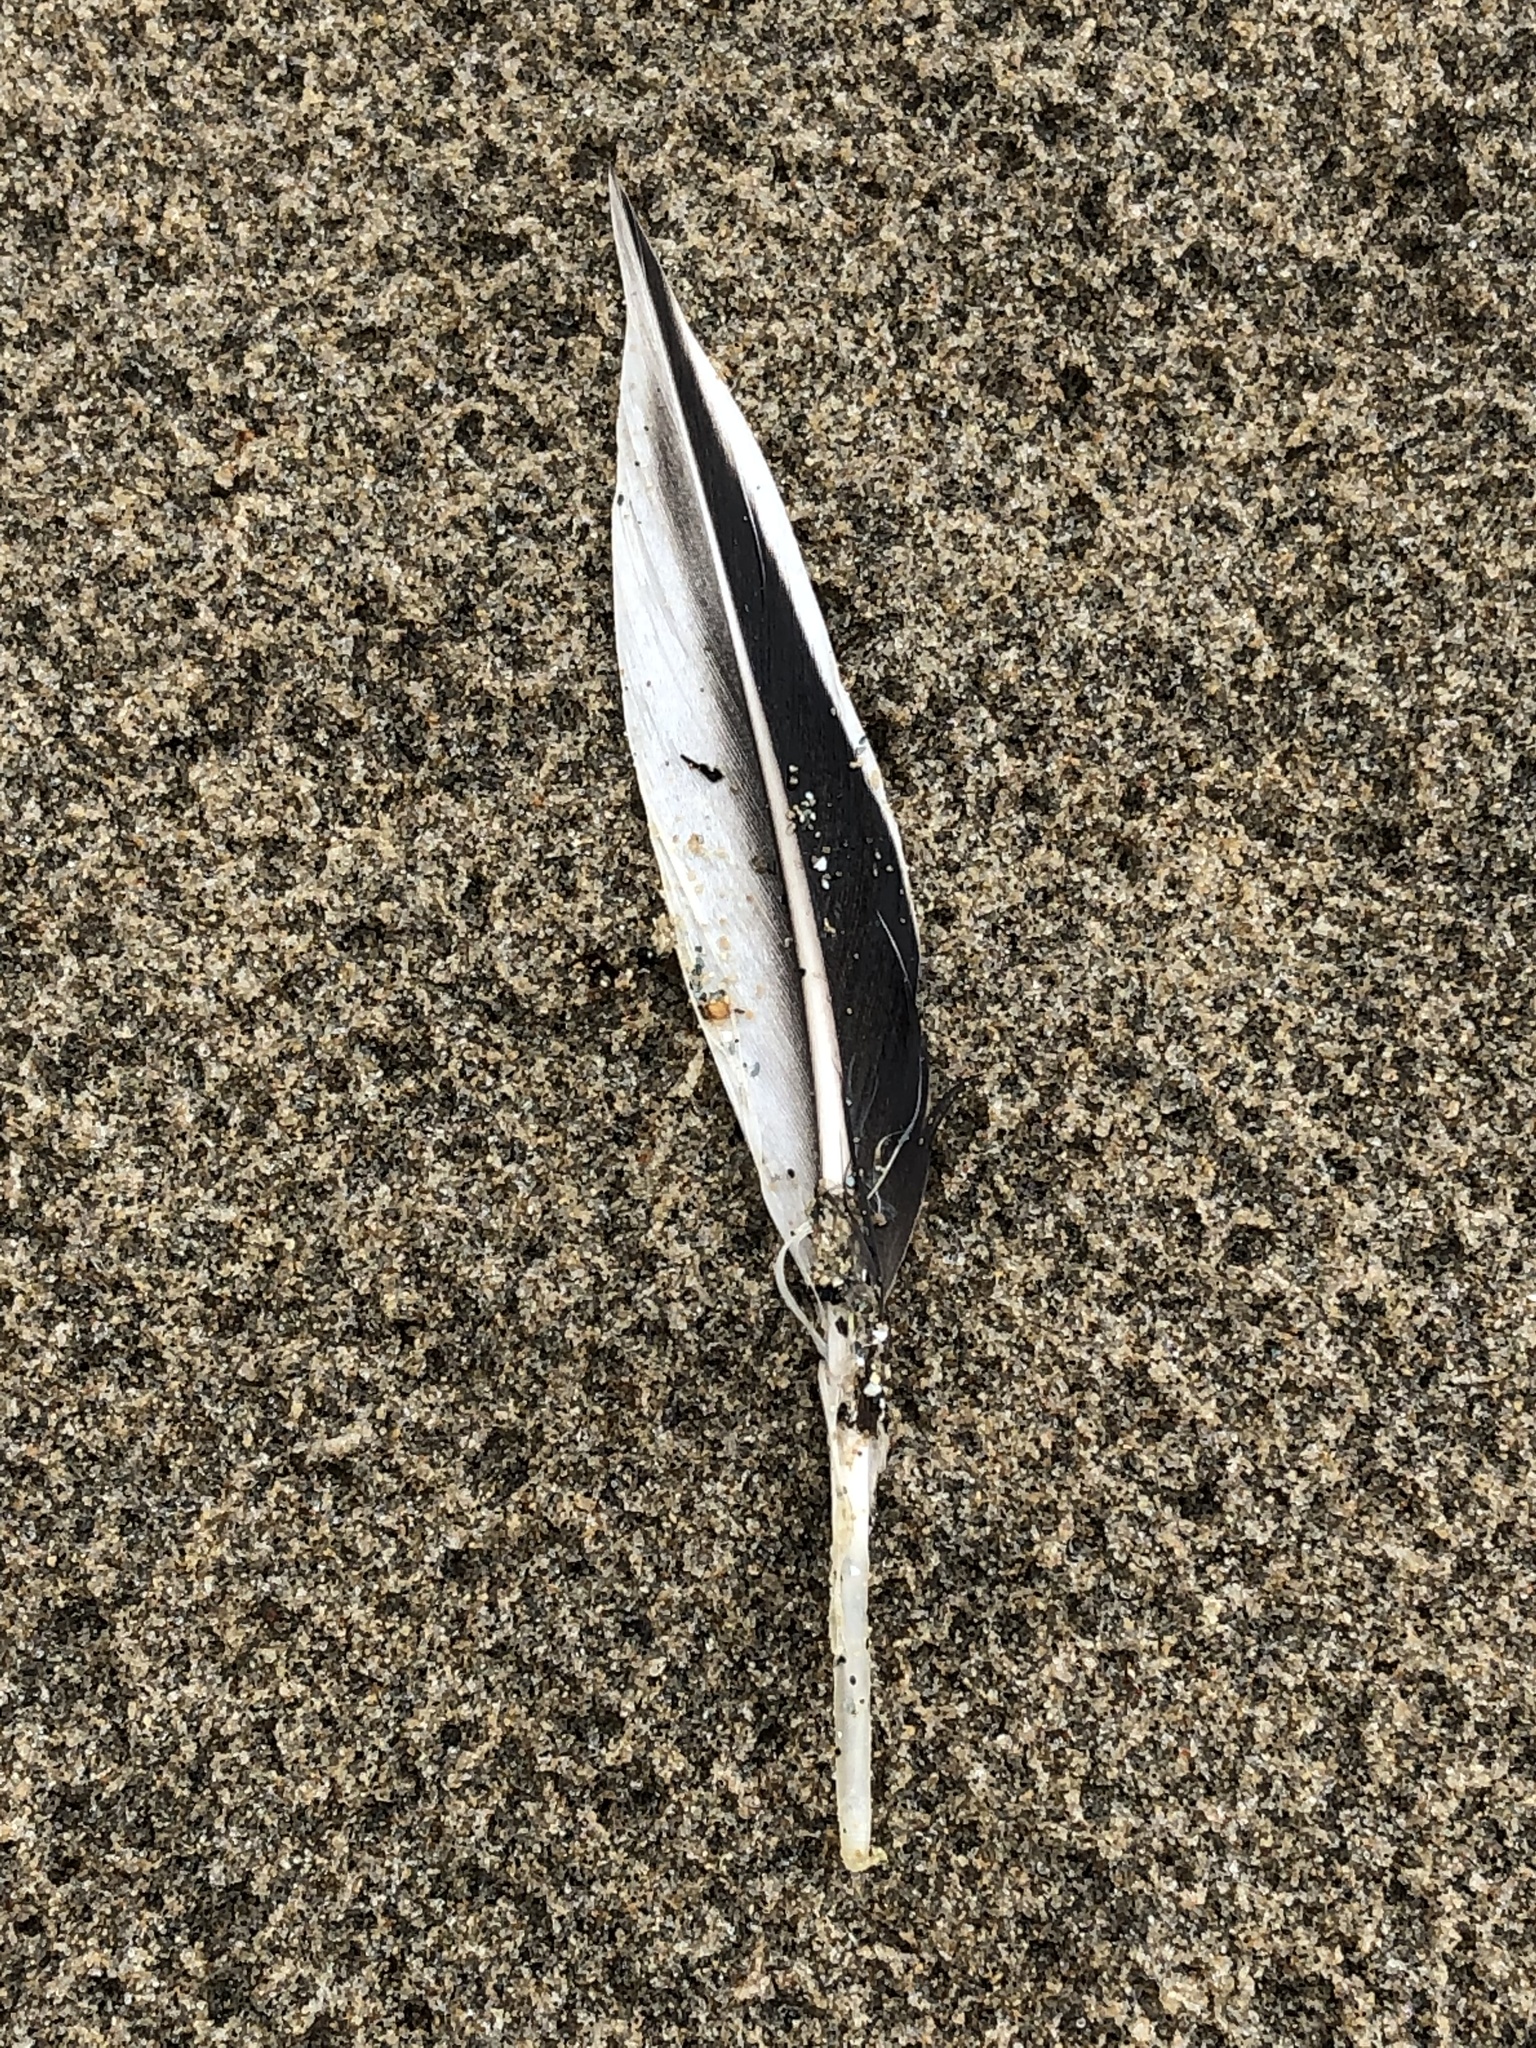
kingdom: Animalia
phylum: Chordata
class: Aves
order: Anseriformes
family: Anatidae
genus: Clangula
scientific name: Clangula hyemalis
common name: Long-tailed duck
